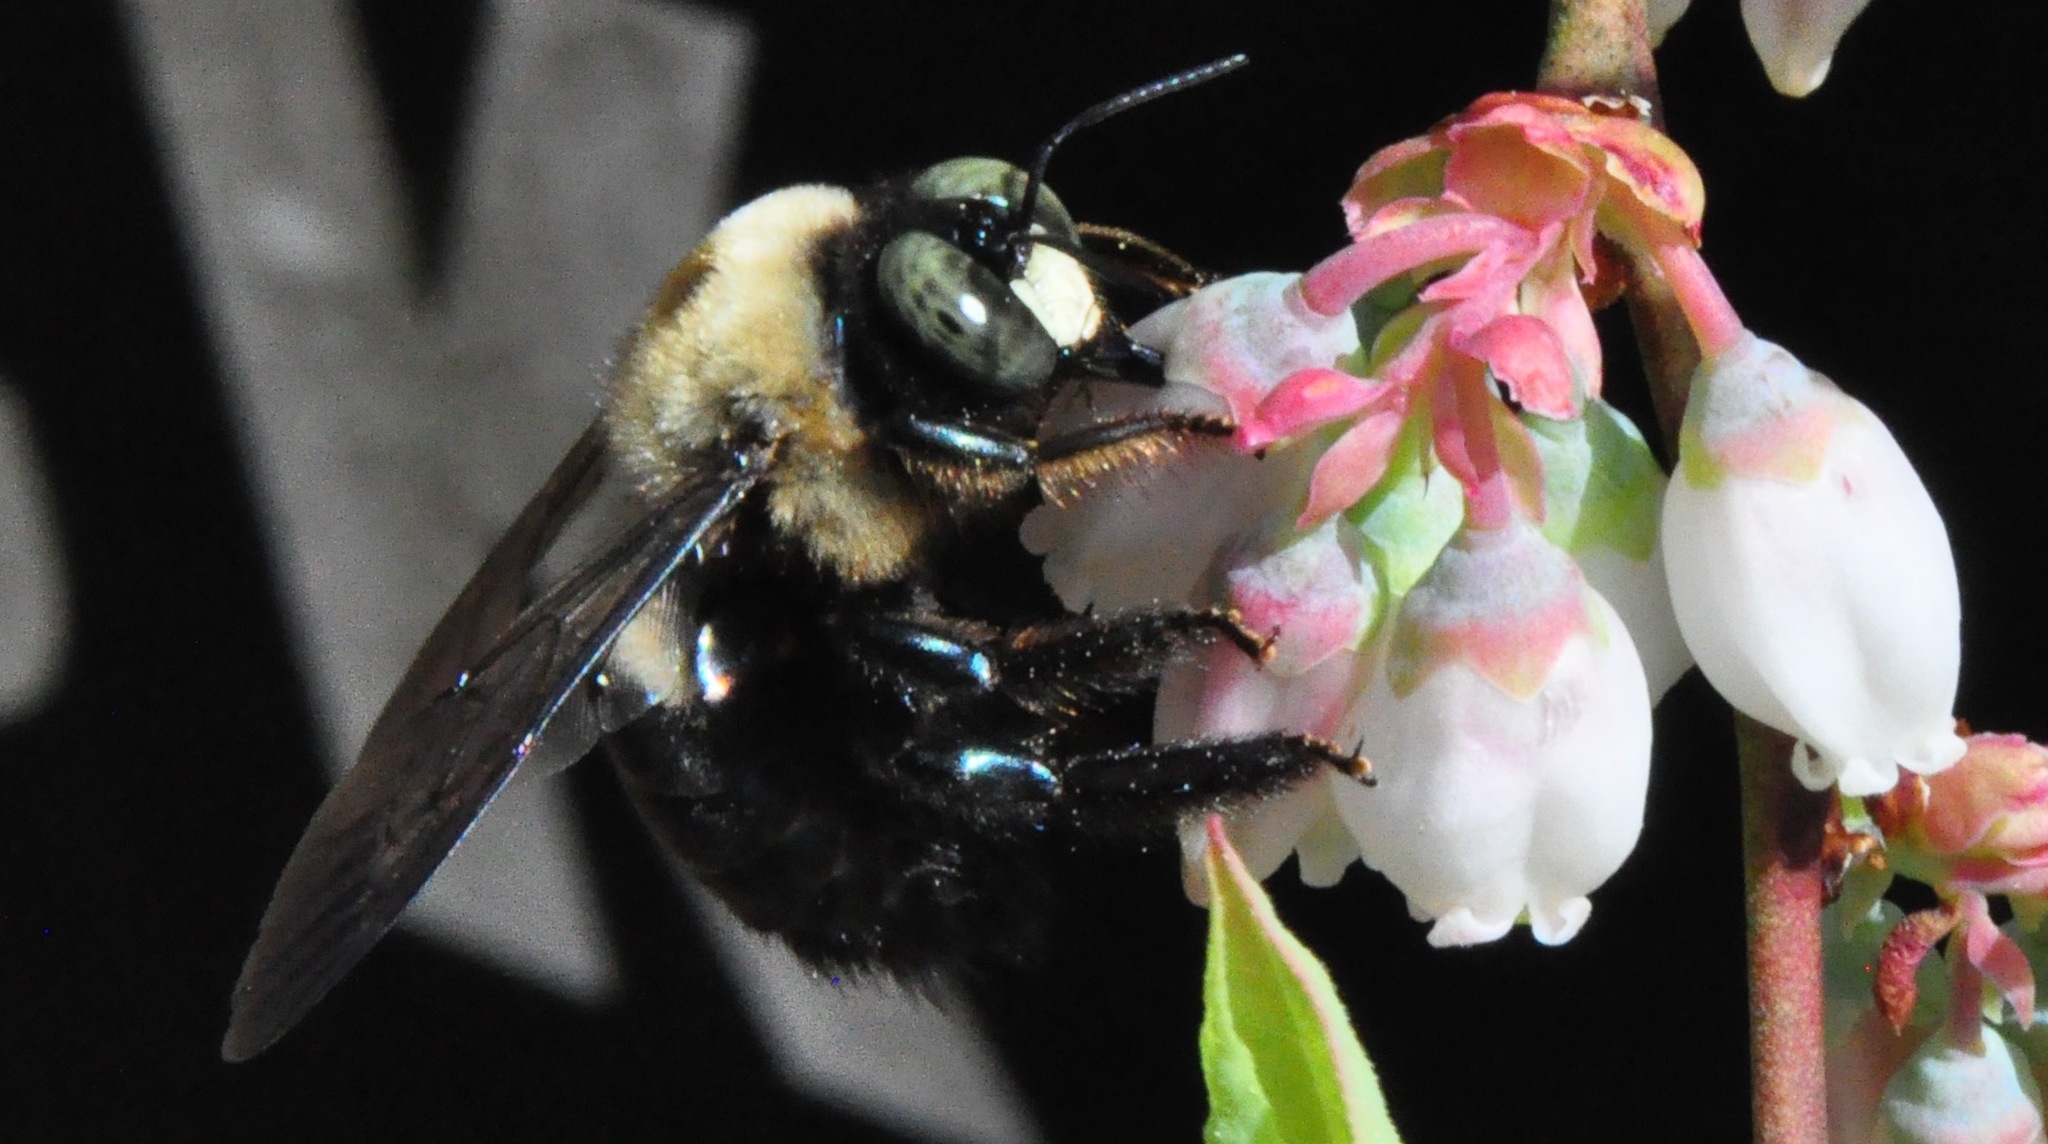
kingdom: Animalia
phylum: Arthropoda
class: Insecta
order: Hymenoptera
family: Apidae
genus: Xylocopa
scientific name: Xylocopa virginica
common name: Carpenter bee
